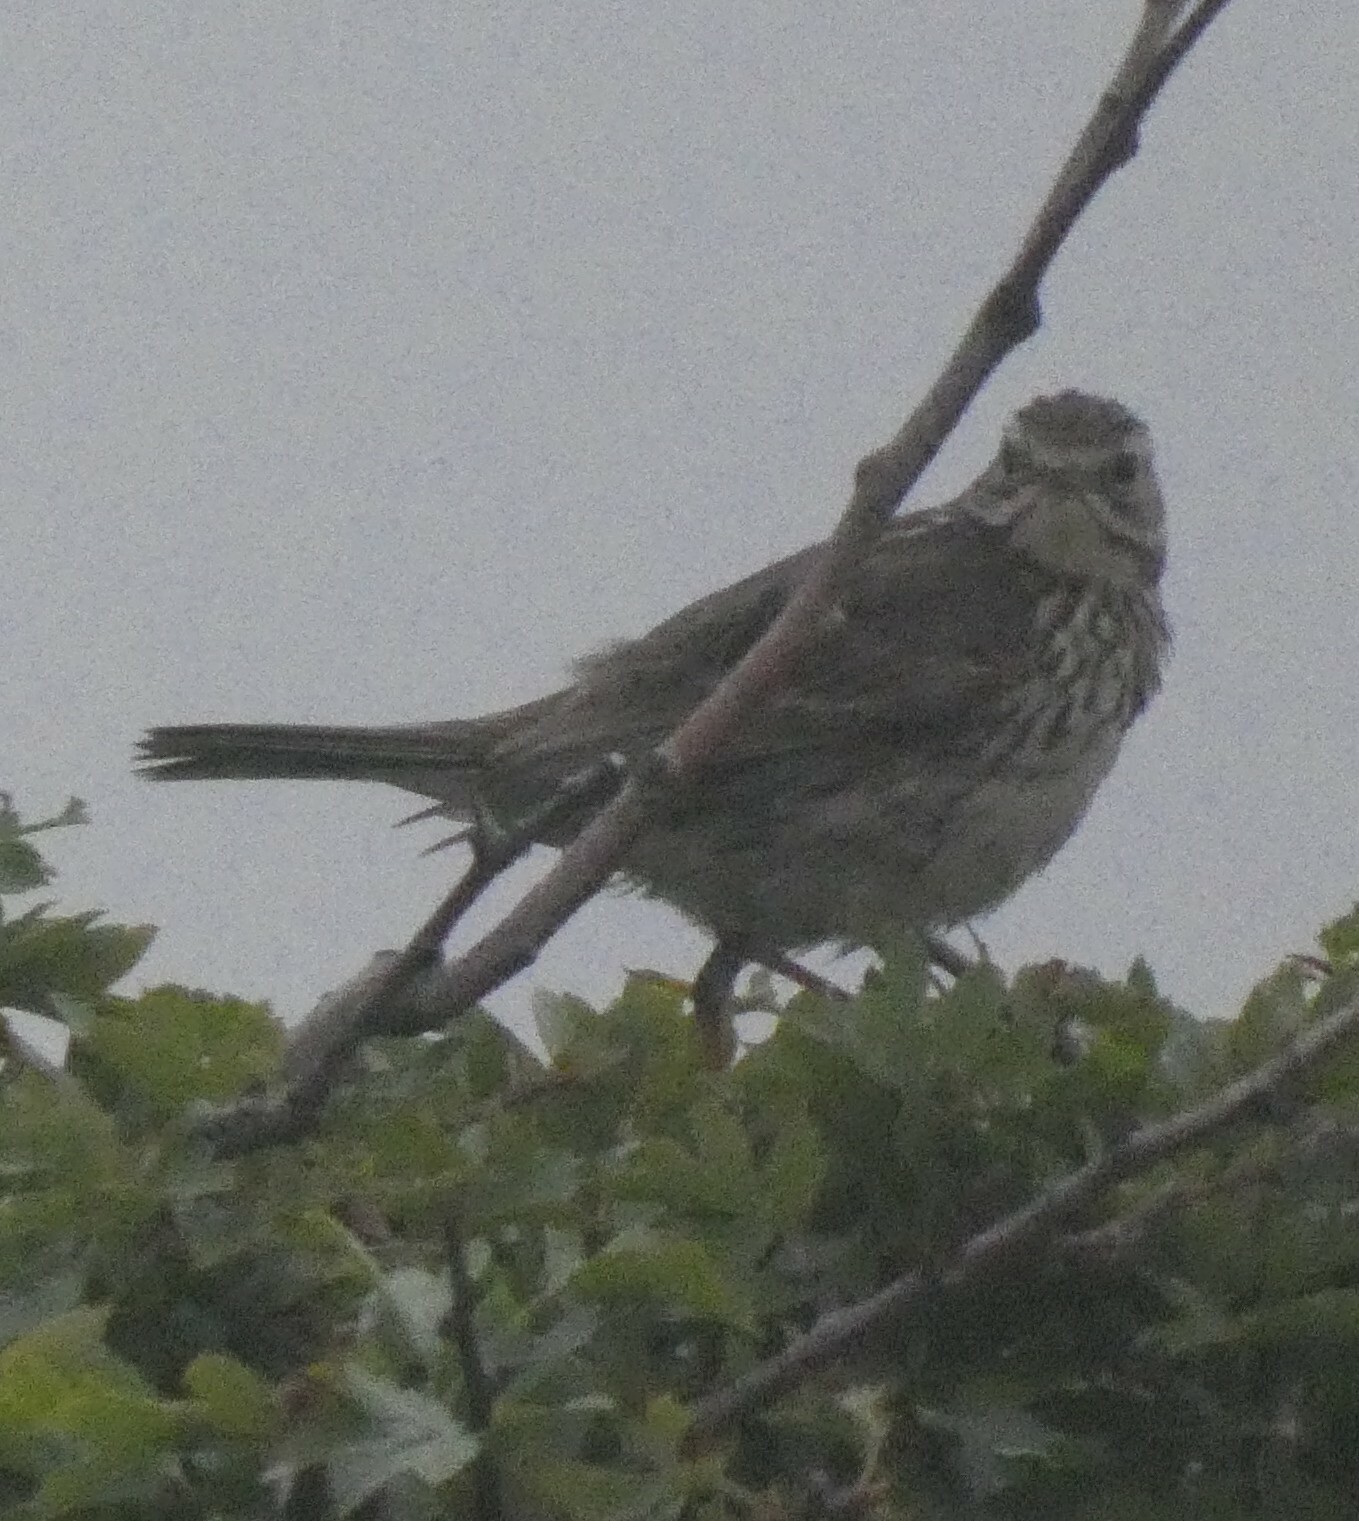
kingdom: Animalia
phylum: Chordata
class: Aves
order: Passeriformes
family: Motacillidae
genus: Anthus
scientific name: Anthus pratensis
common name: Meadow pipit
